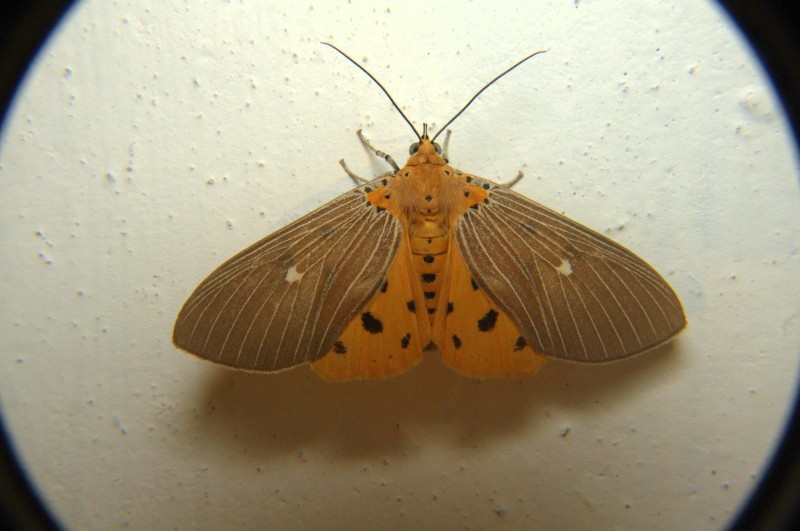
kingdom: Animalia
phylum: Arthropoda
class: Insecta
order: Lepidoptera
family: Erebidae
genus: Asota
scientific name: Asota caricae
